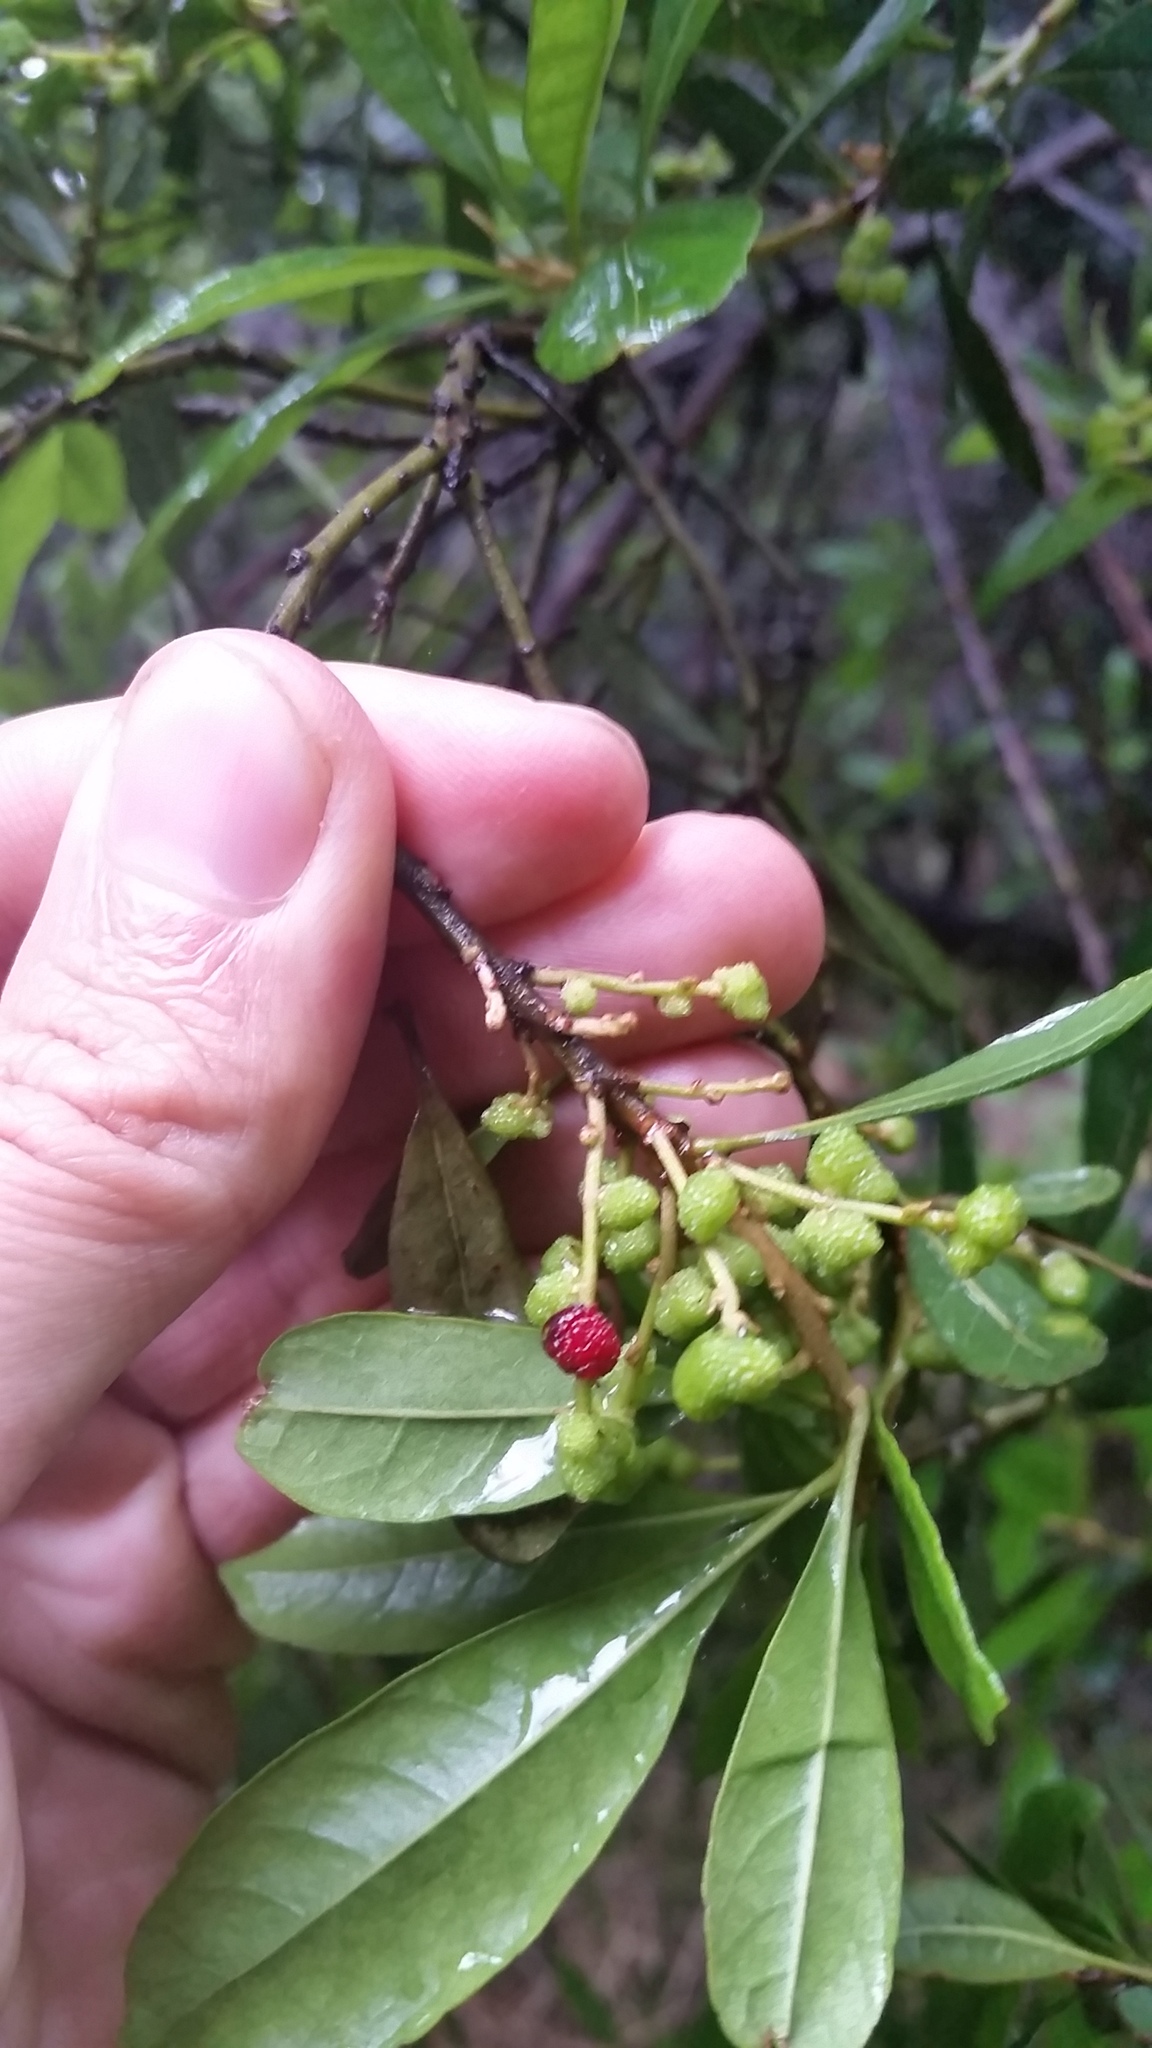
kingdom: Plantae
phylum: Tracheophyta
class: Magnoliopsida
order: Fagales
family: Myricaceae
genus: Morella
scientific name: Morella faya
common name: Firetree
